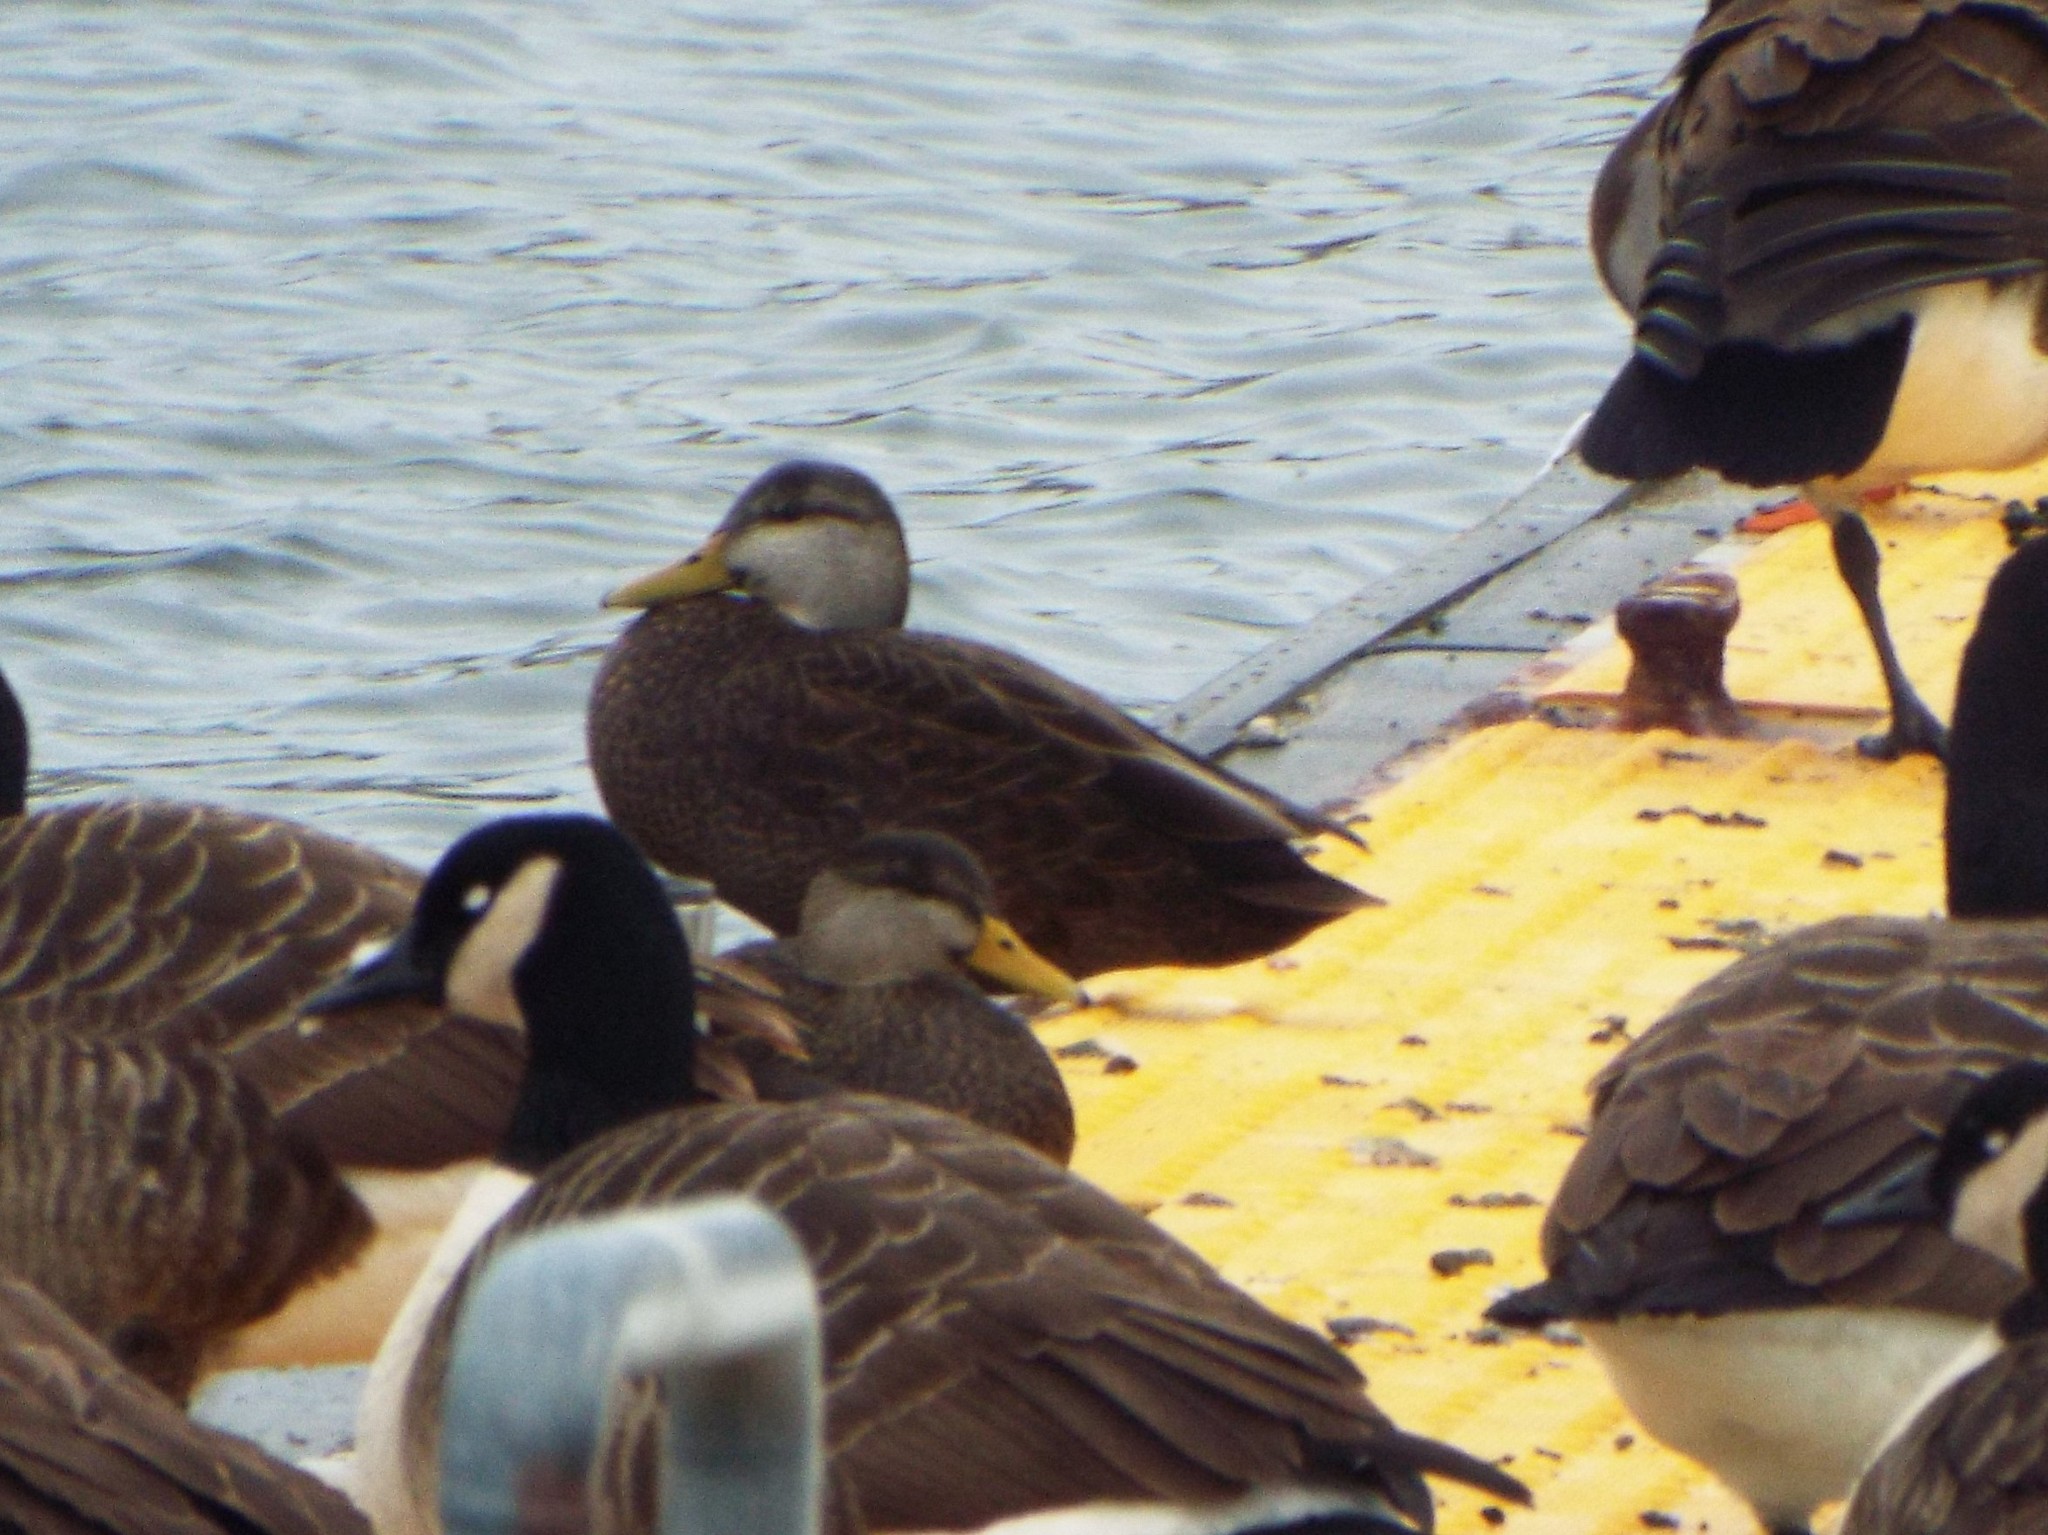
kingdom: Animalia
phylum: Chordata
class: Aves
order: Anseriformes
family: Anatidae
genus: Anas
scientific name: Anas rubripes
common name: American black duck
